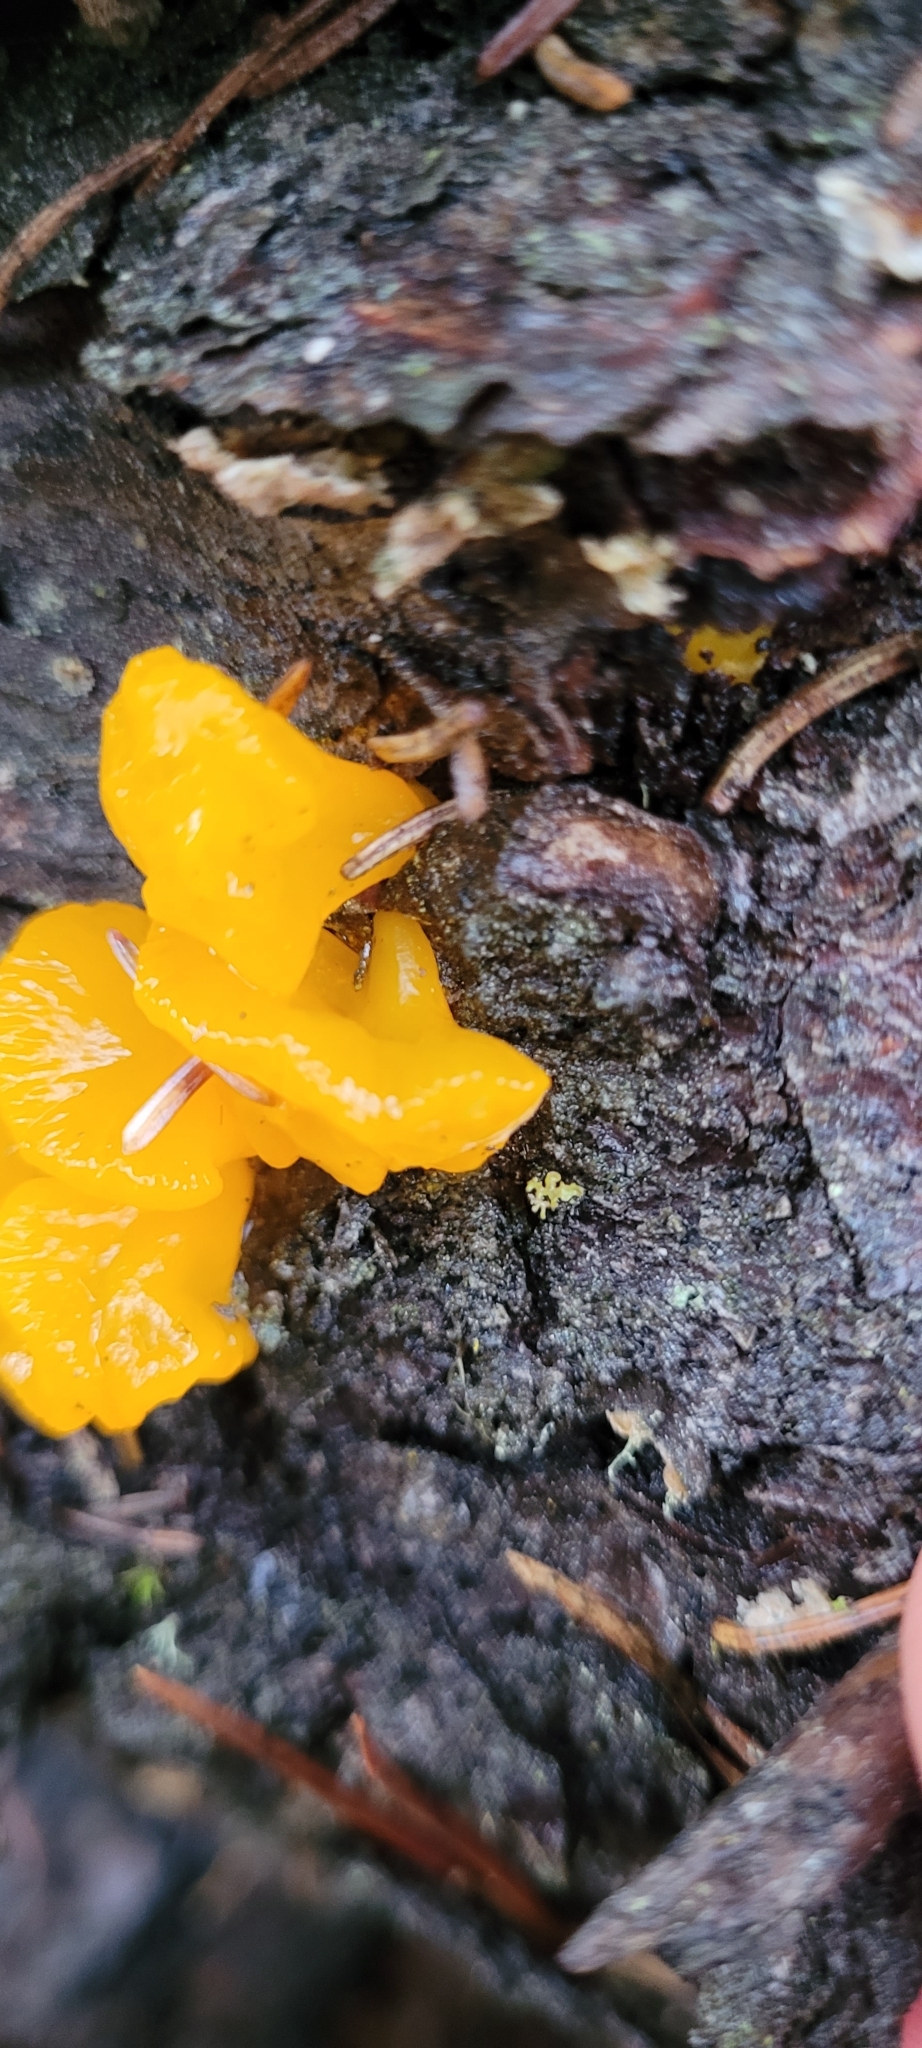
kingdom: Fungi
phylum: Basidiomycota
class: Dacrymycetes
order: Dacrymycetales
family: Dacrymycetaceae
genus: Dacrymyces
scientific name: Dacrymyces chrysospermus
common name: Orange jelly spot
